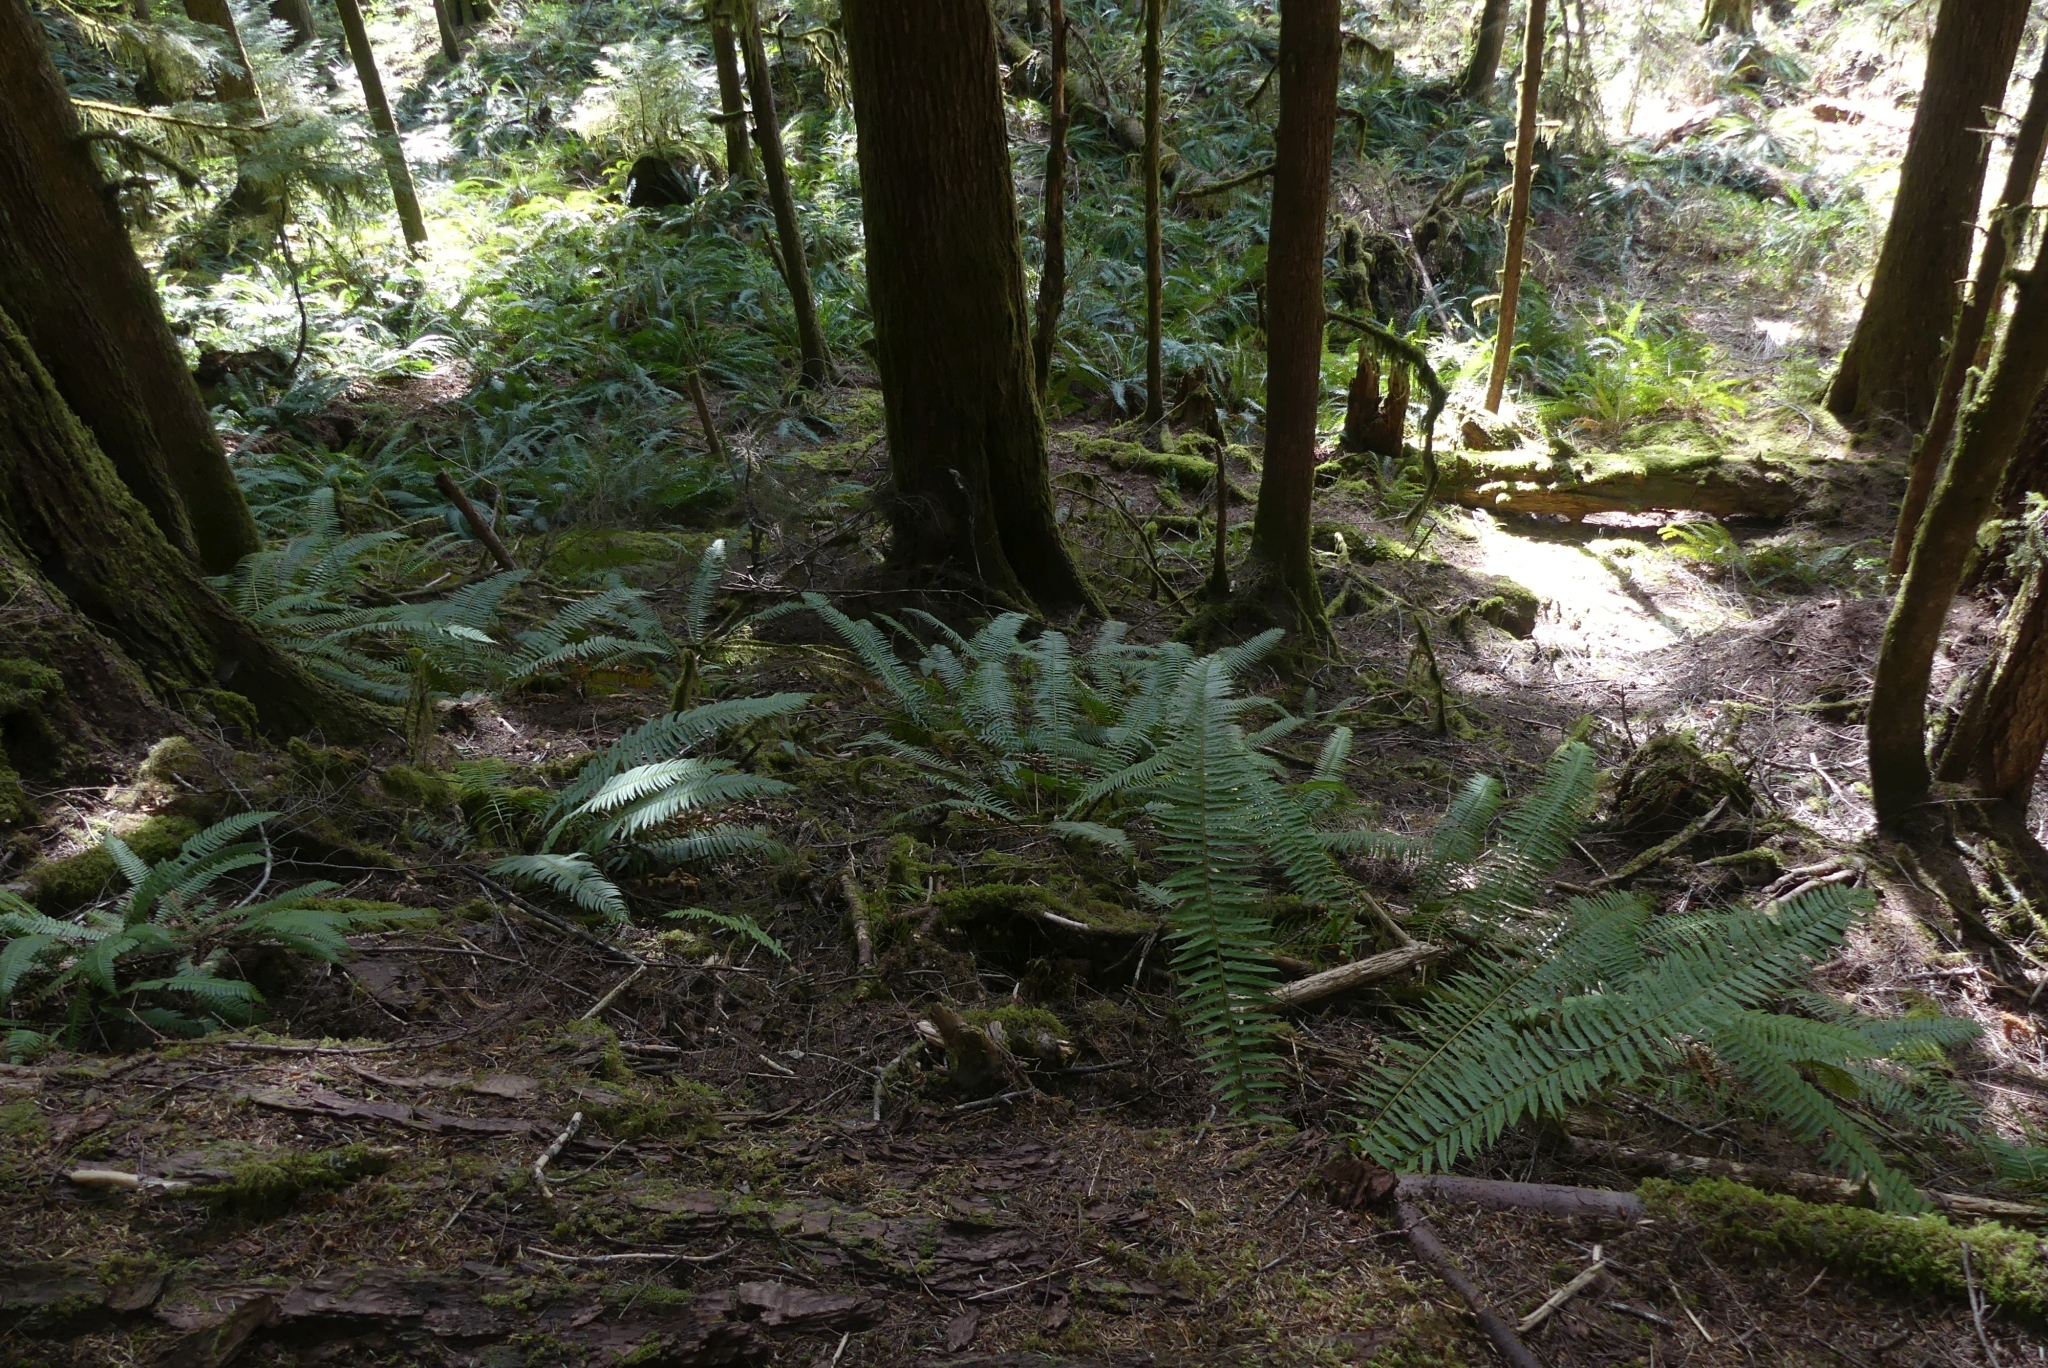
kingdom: Plantae
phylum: Tracheophyta
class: Polypodiopsida
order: Polypodiales
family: Dryopteridaceae
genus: Polystichum
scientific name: Polystichum munitum
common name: Western sword-fern
